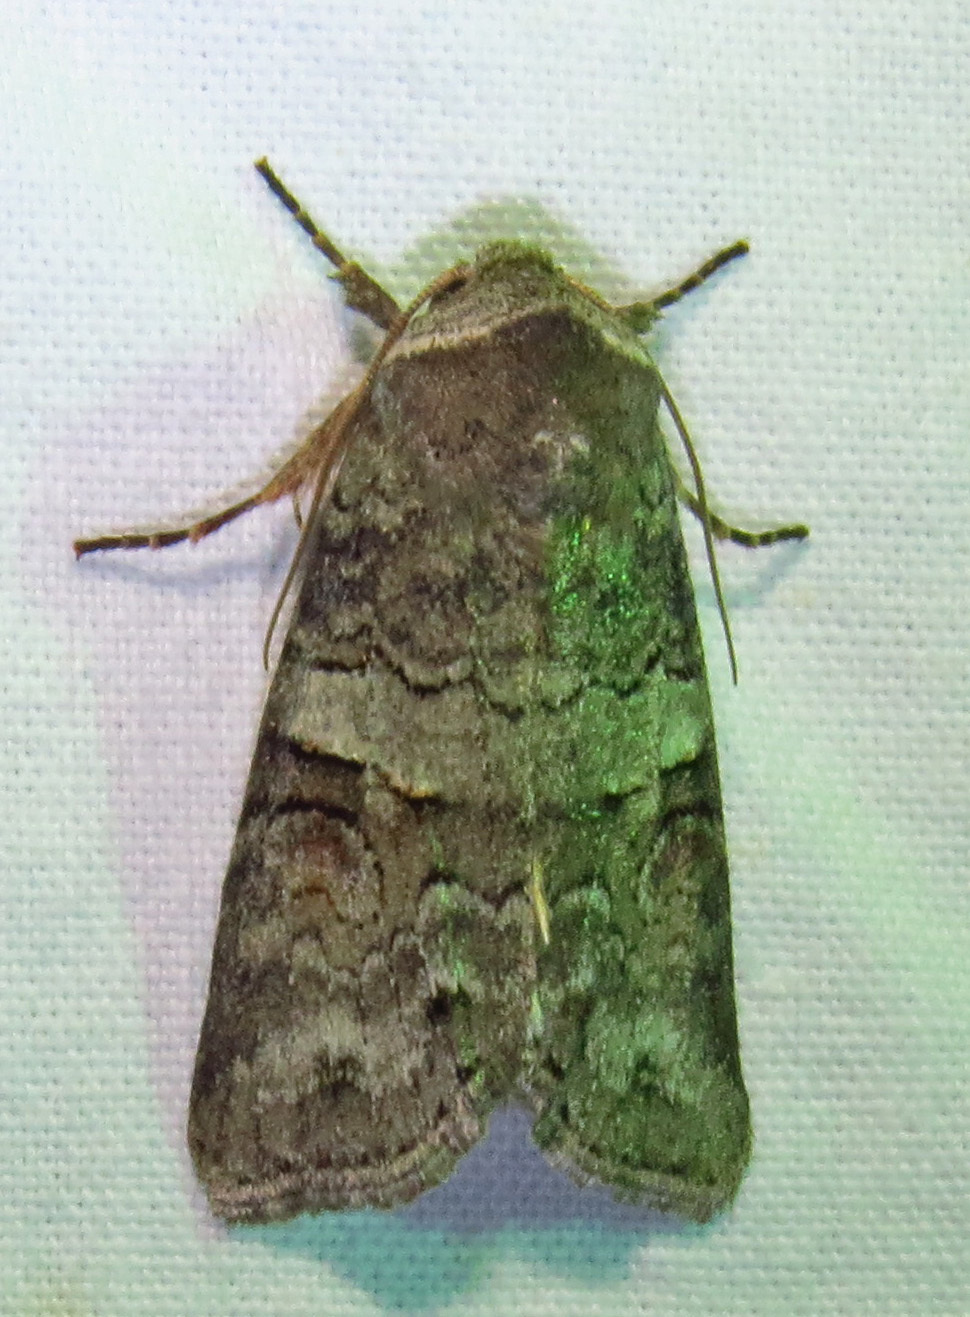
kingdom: Animalia
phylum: Arthropoda
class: Insecta
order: Lepidoptera
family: Noctuidae
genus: Egira
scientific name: Egira alternans
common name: Alternate woodling
